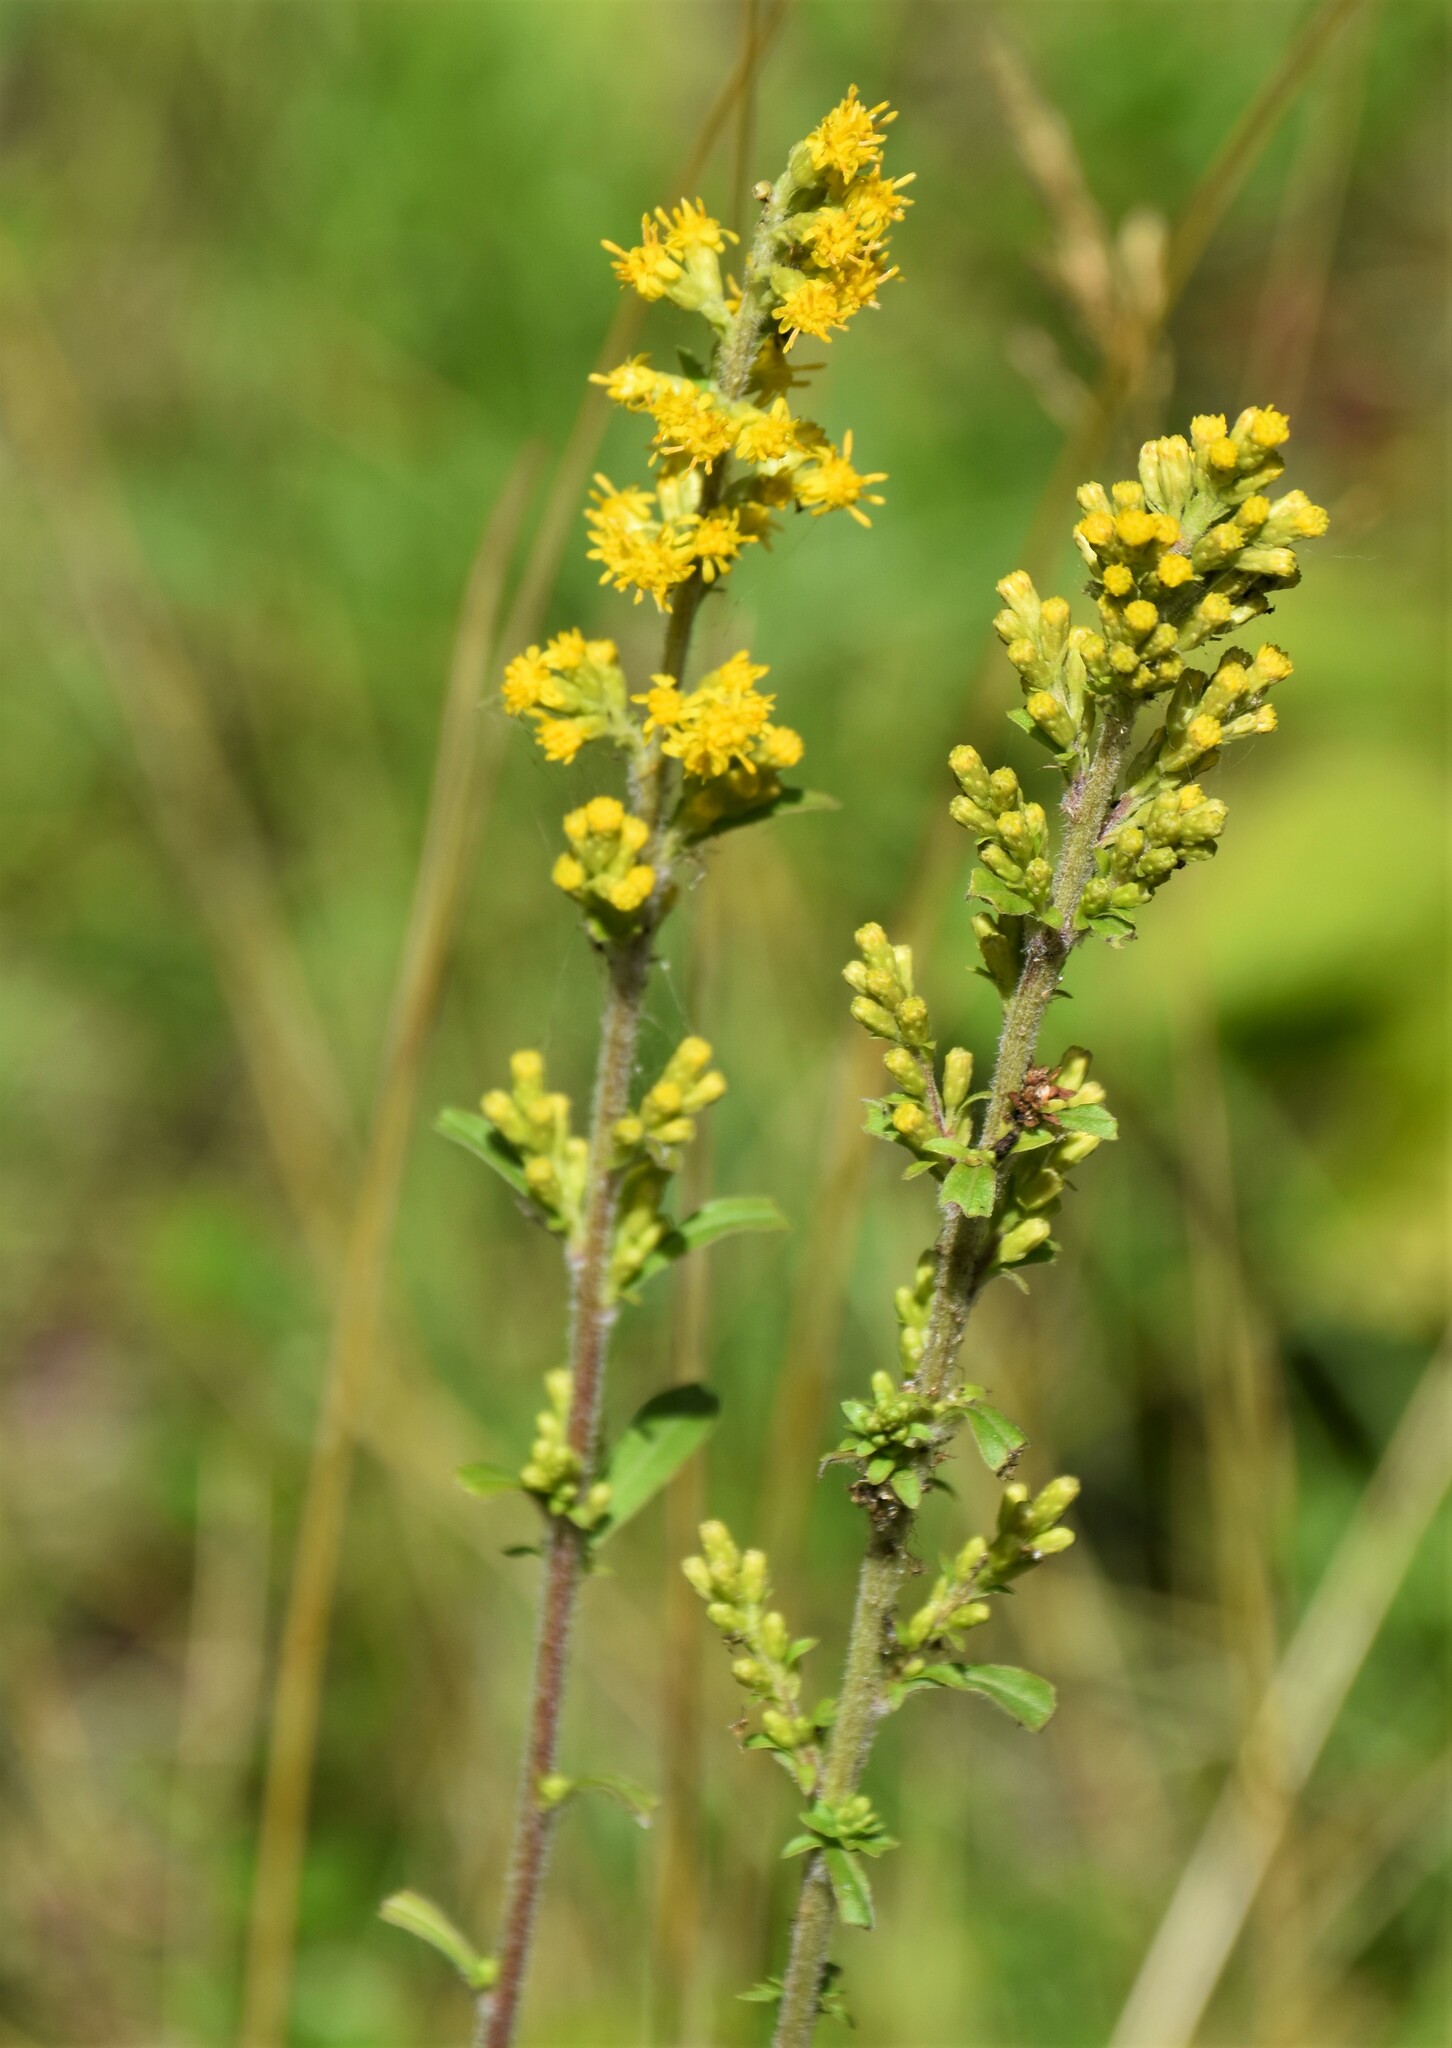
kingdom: Plantae
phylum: Tracheophyta
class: Magnoliopsida
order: Asterales
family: Asteraceae
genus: Solidago
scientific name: Solidago hispida
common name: Hairy goldenrod
